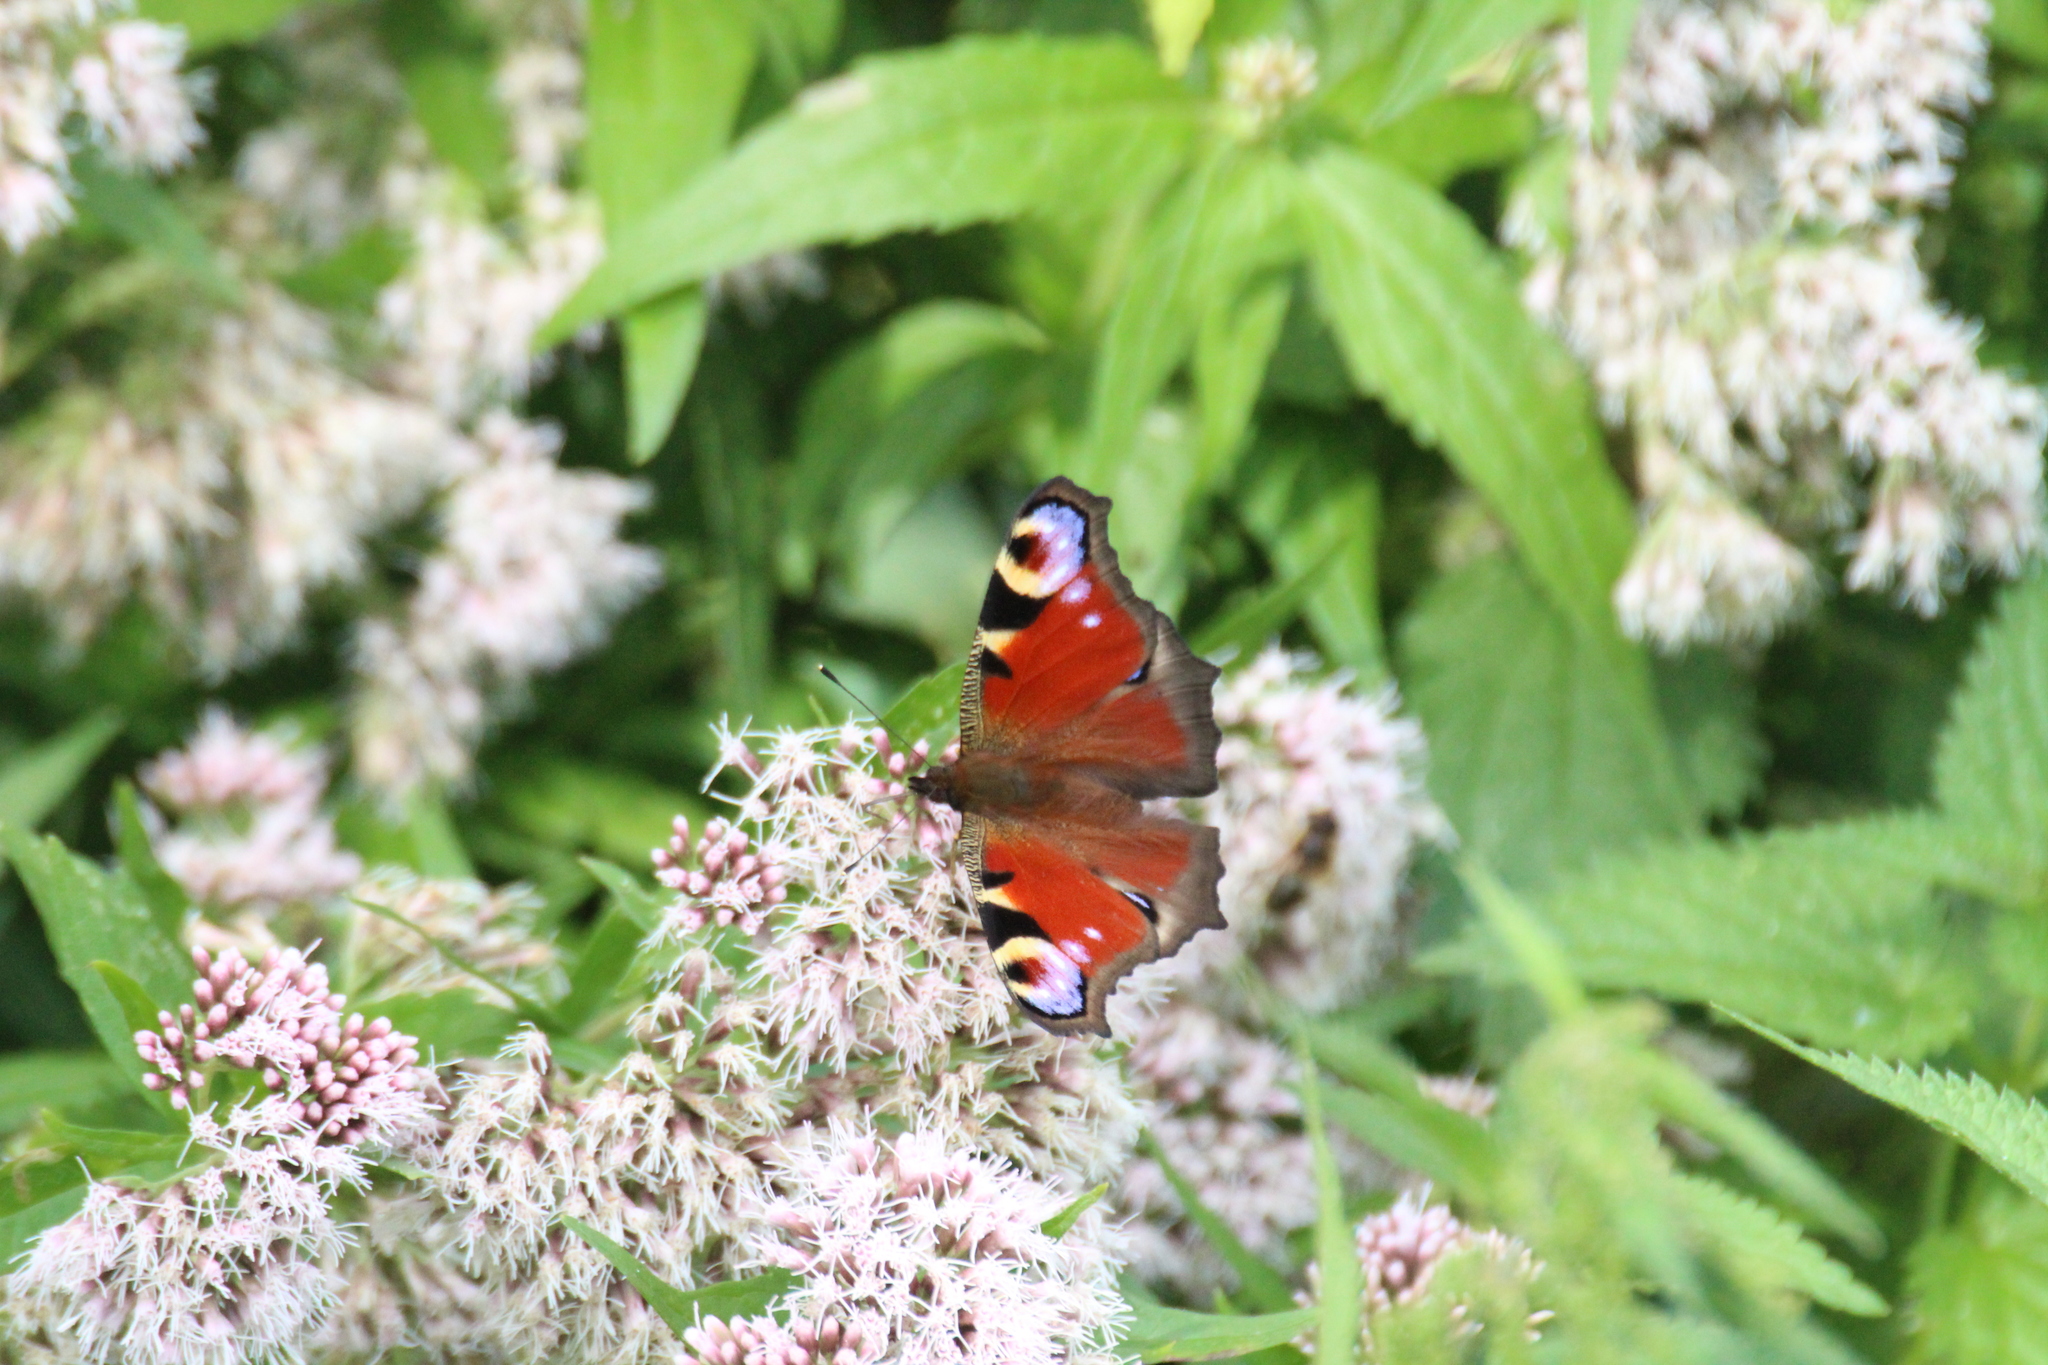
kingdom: Animalia
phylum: Arthropoda
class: Insecta
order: Lepidoptera
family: Nymphalidae
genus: Aglais
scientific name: Aglais io
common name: Peacock
